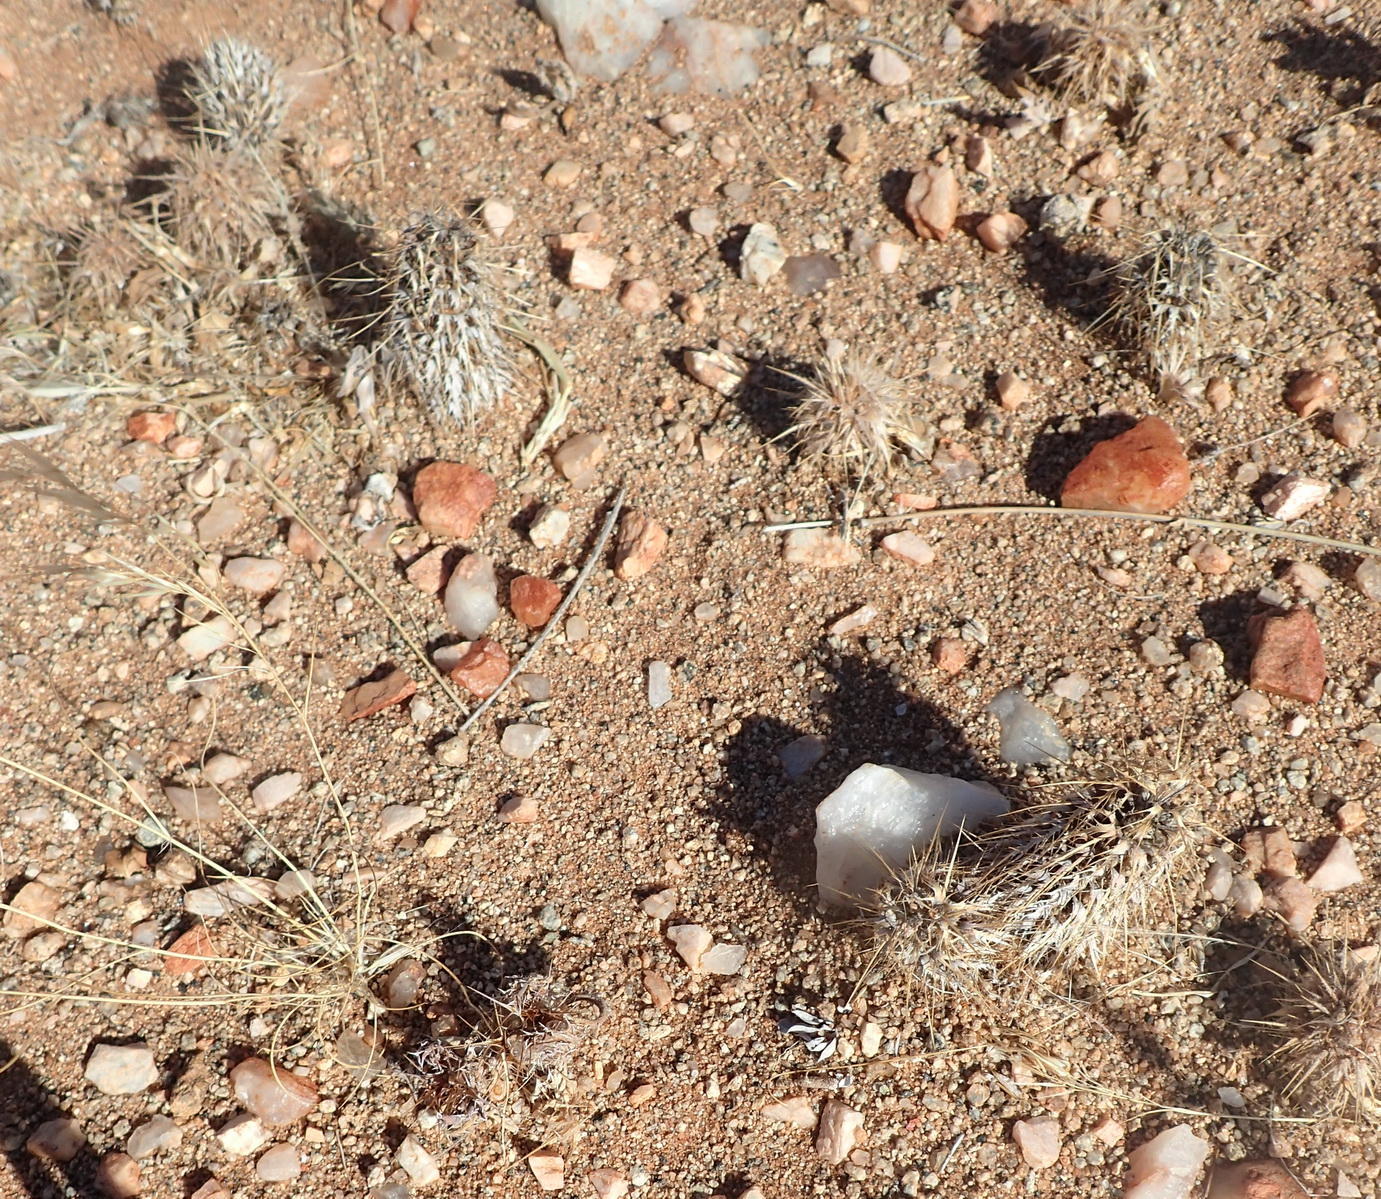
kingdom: Plantae
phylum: Tracheophyta
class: Magnoliopsida
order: Lamiales
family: Acanthaceae
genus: Acanthopsis
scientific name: Acanthopsis disperma
